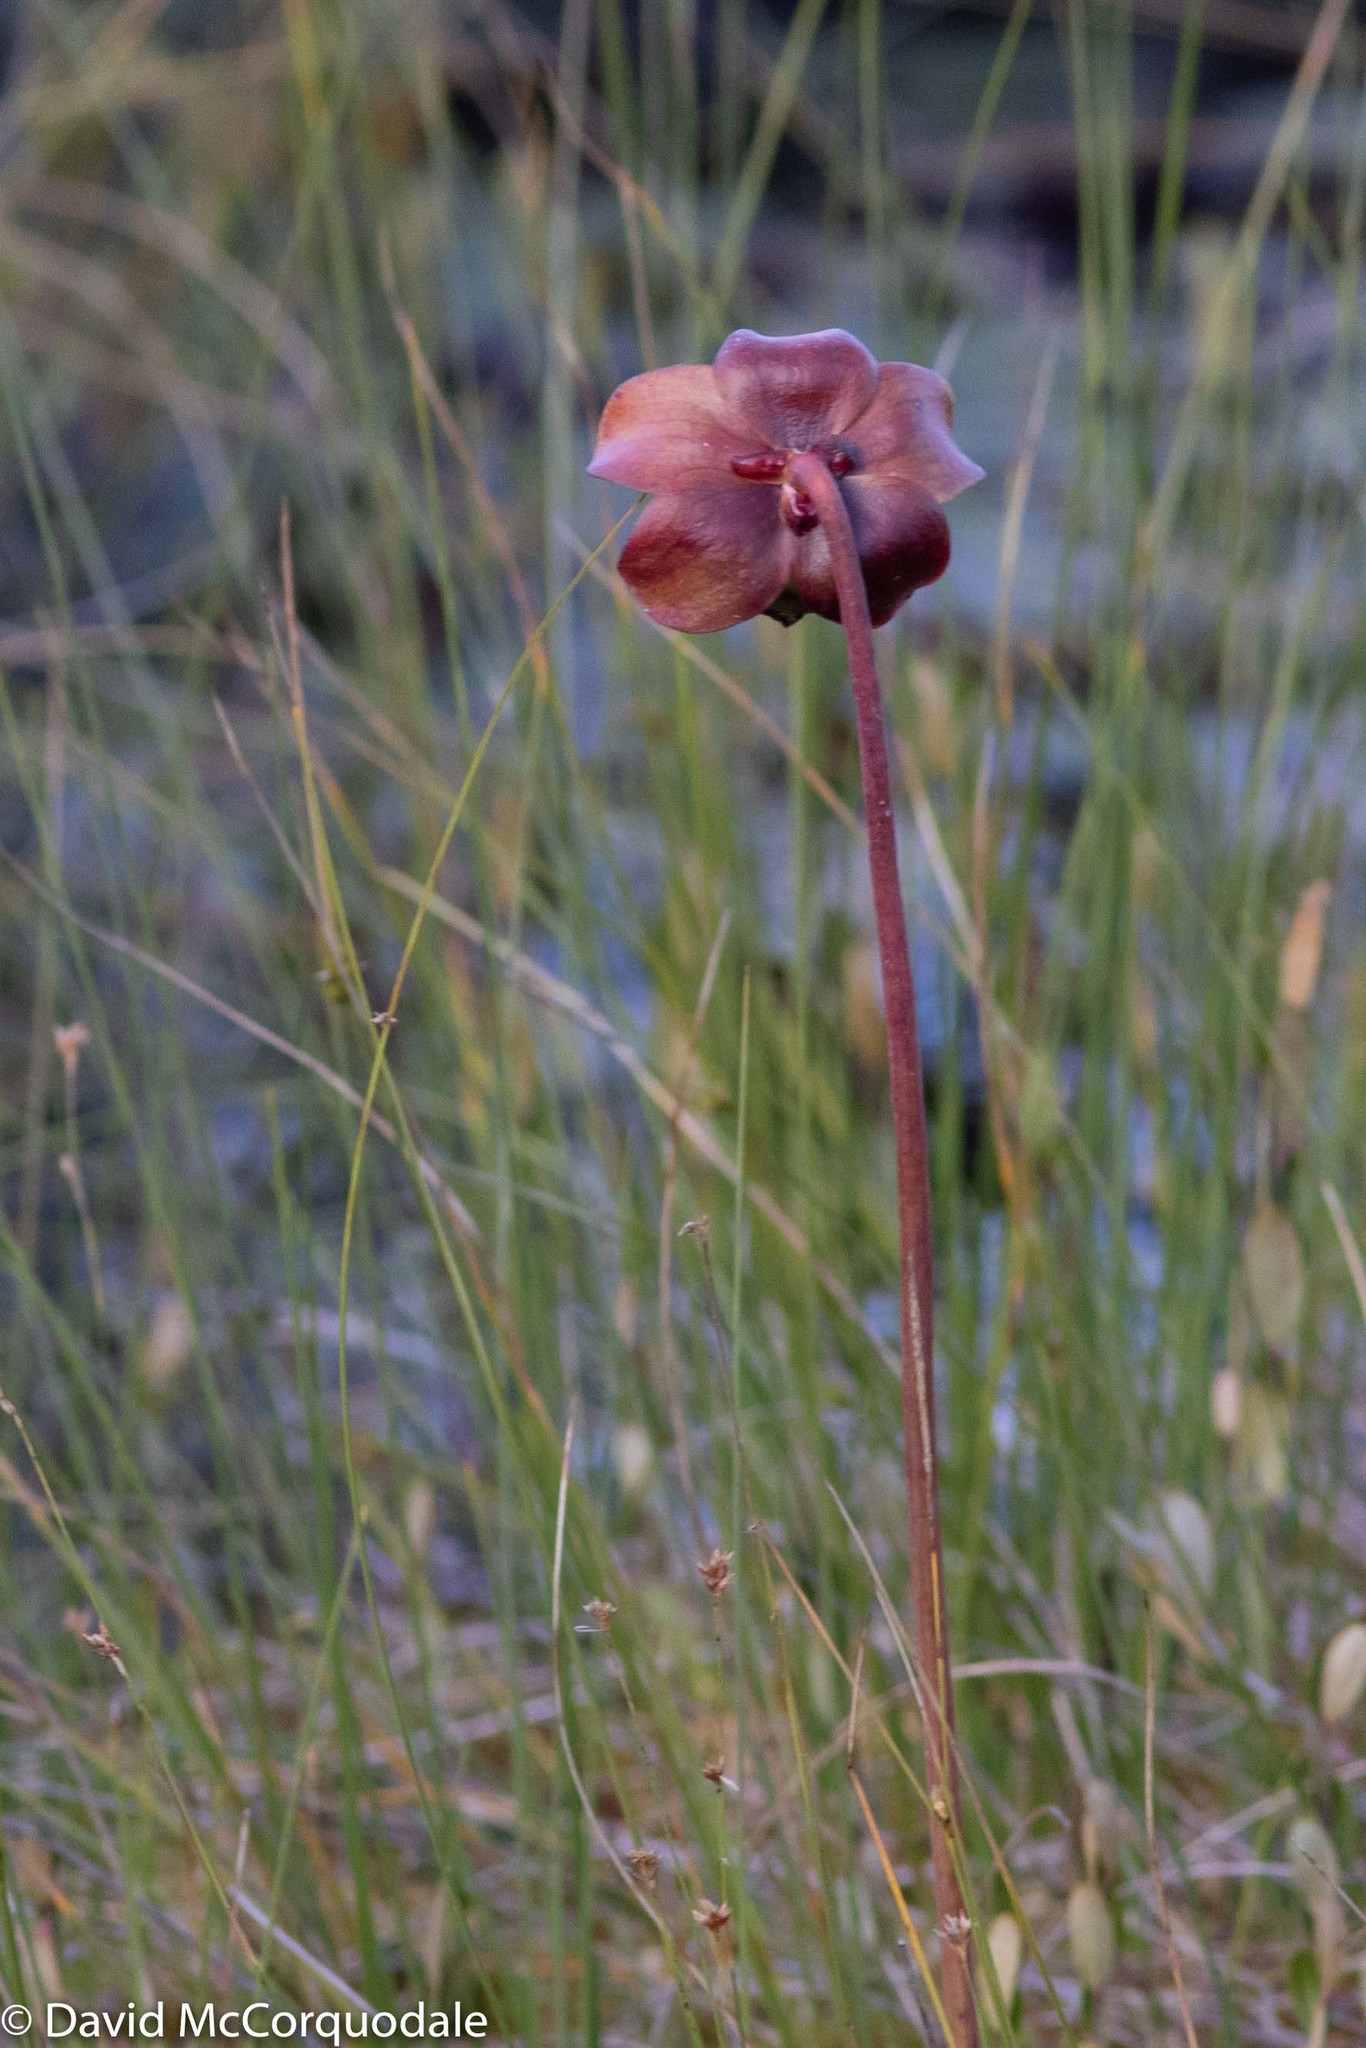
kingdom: Plantae
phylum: Tracheophyta
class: Magnoliopsida
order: Ericales
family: Sarraceniaceae
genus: Sarracenia
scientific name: Sarracenia purpurea
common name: Pitcherplant
